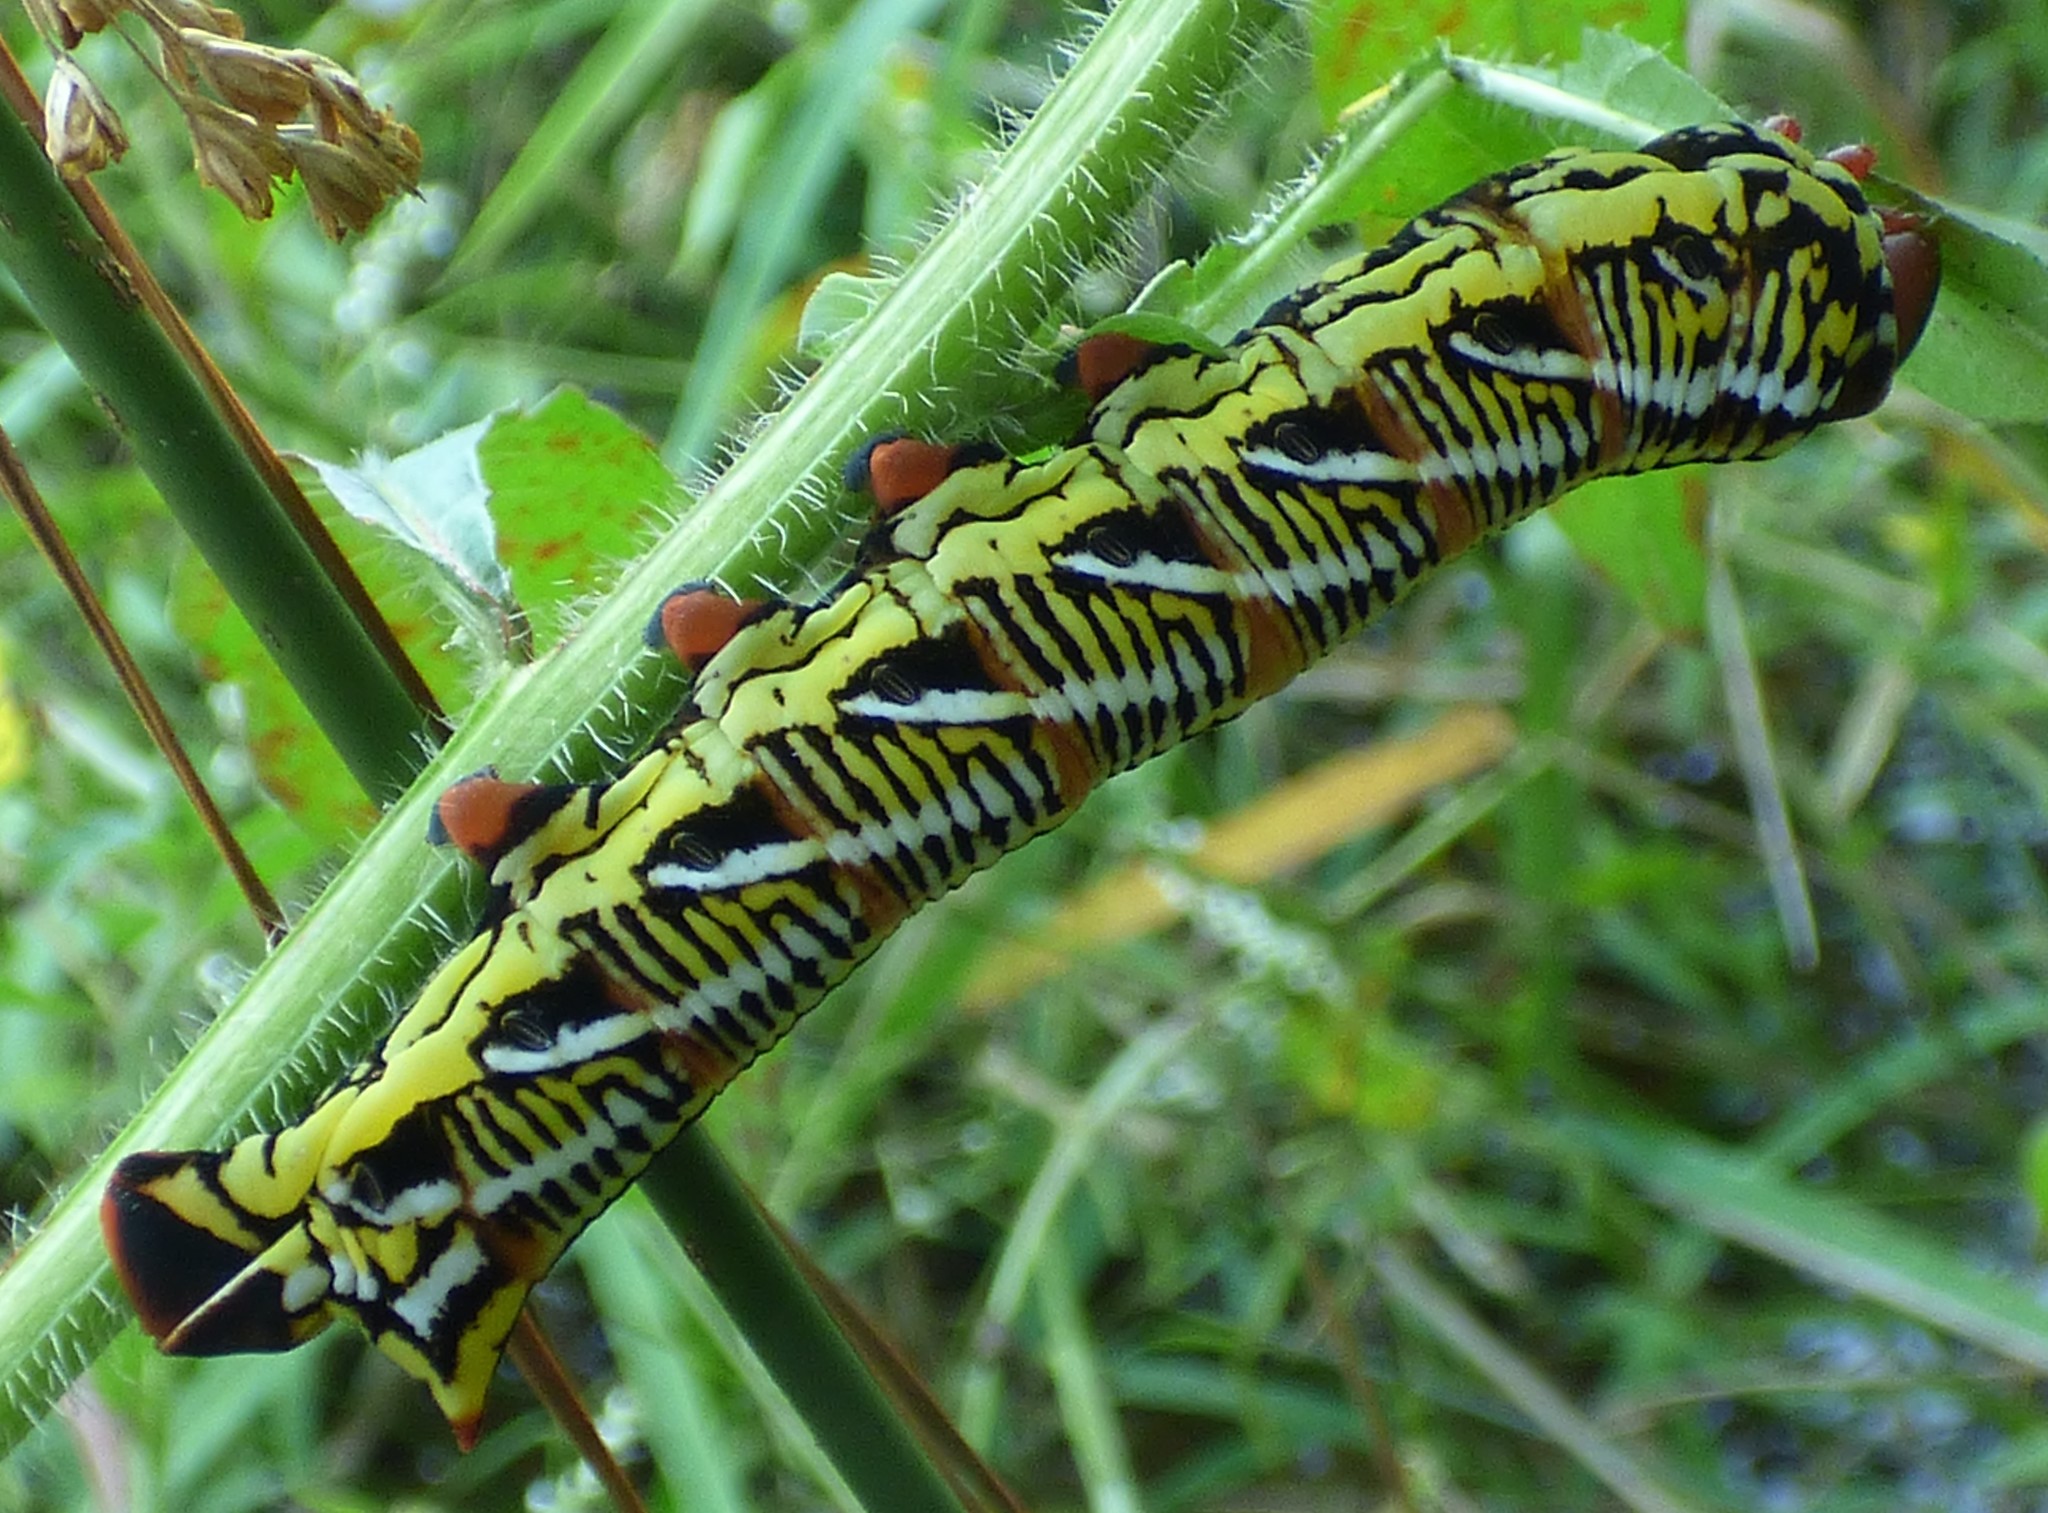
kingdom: Animalia
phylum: Arthropoda
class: Insecta
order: Lepidoptera
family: Sphingidae
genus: Eumorpha
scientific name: Eumorpha fasciatus
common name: Banded sphinx
